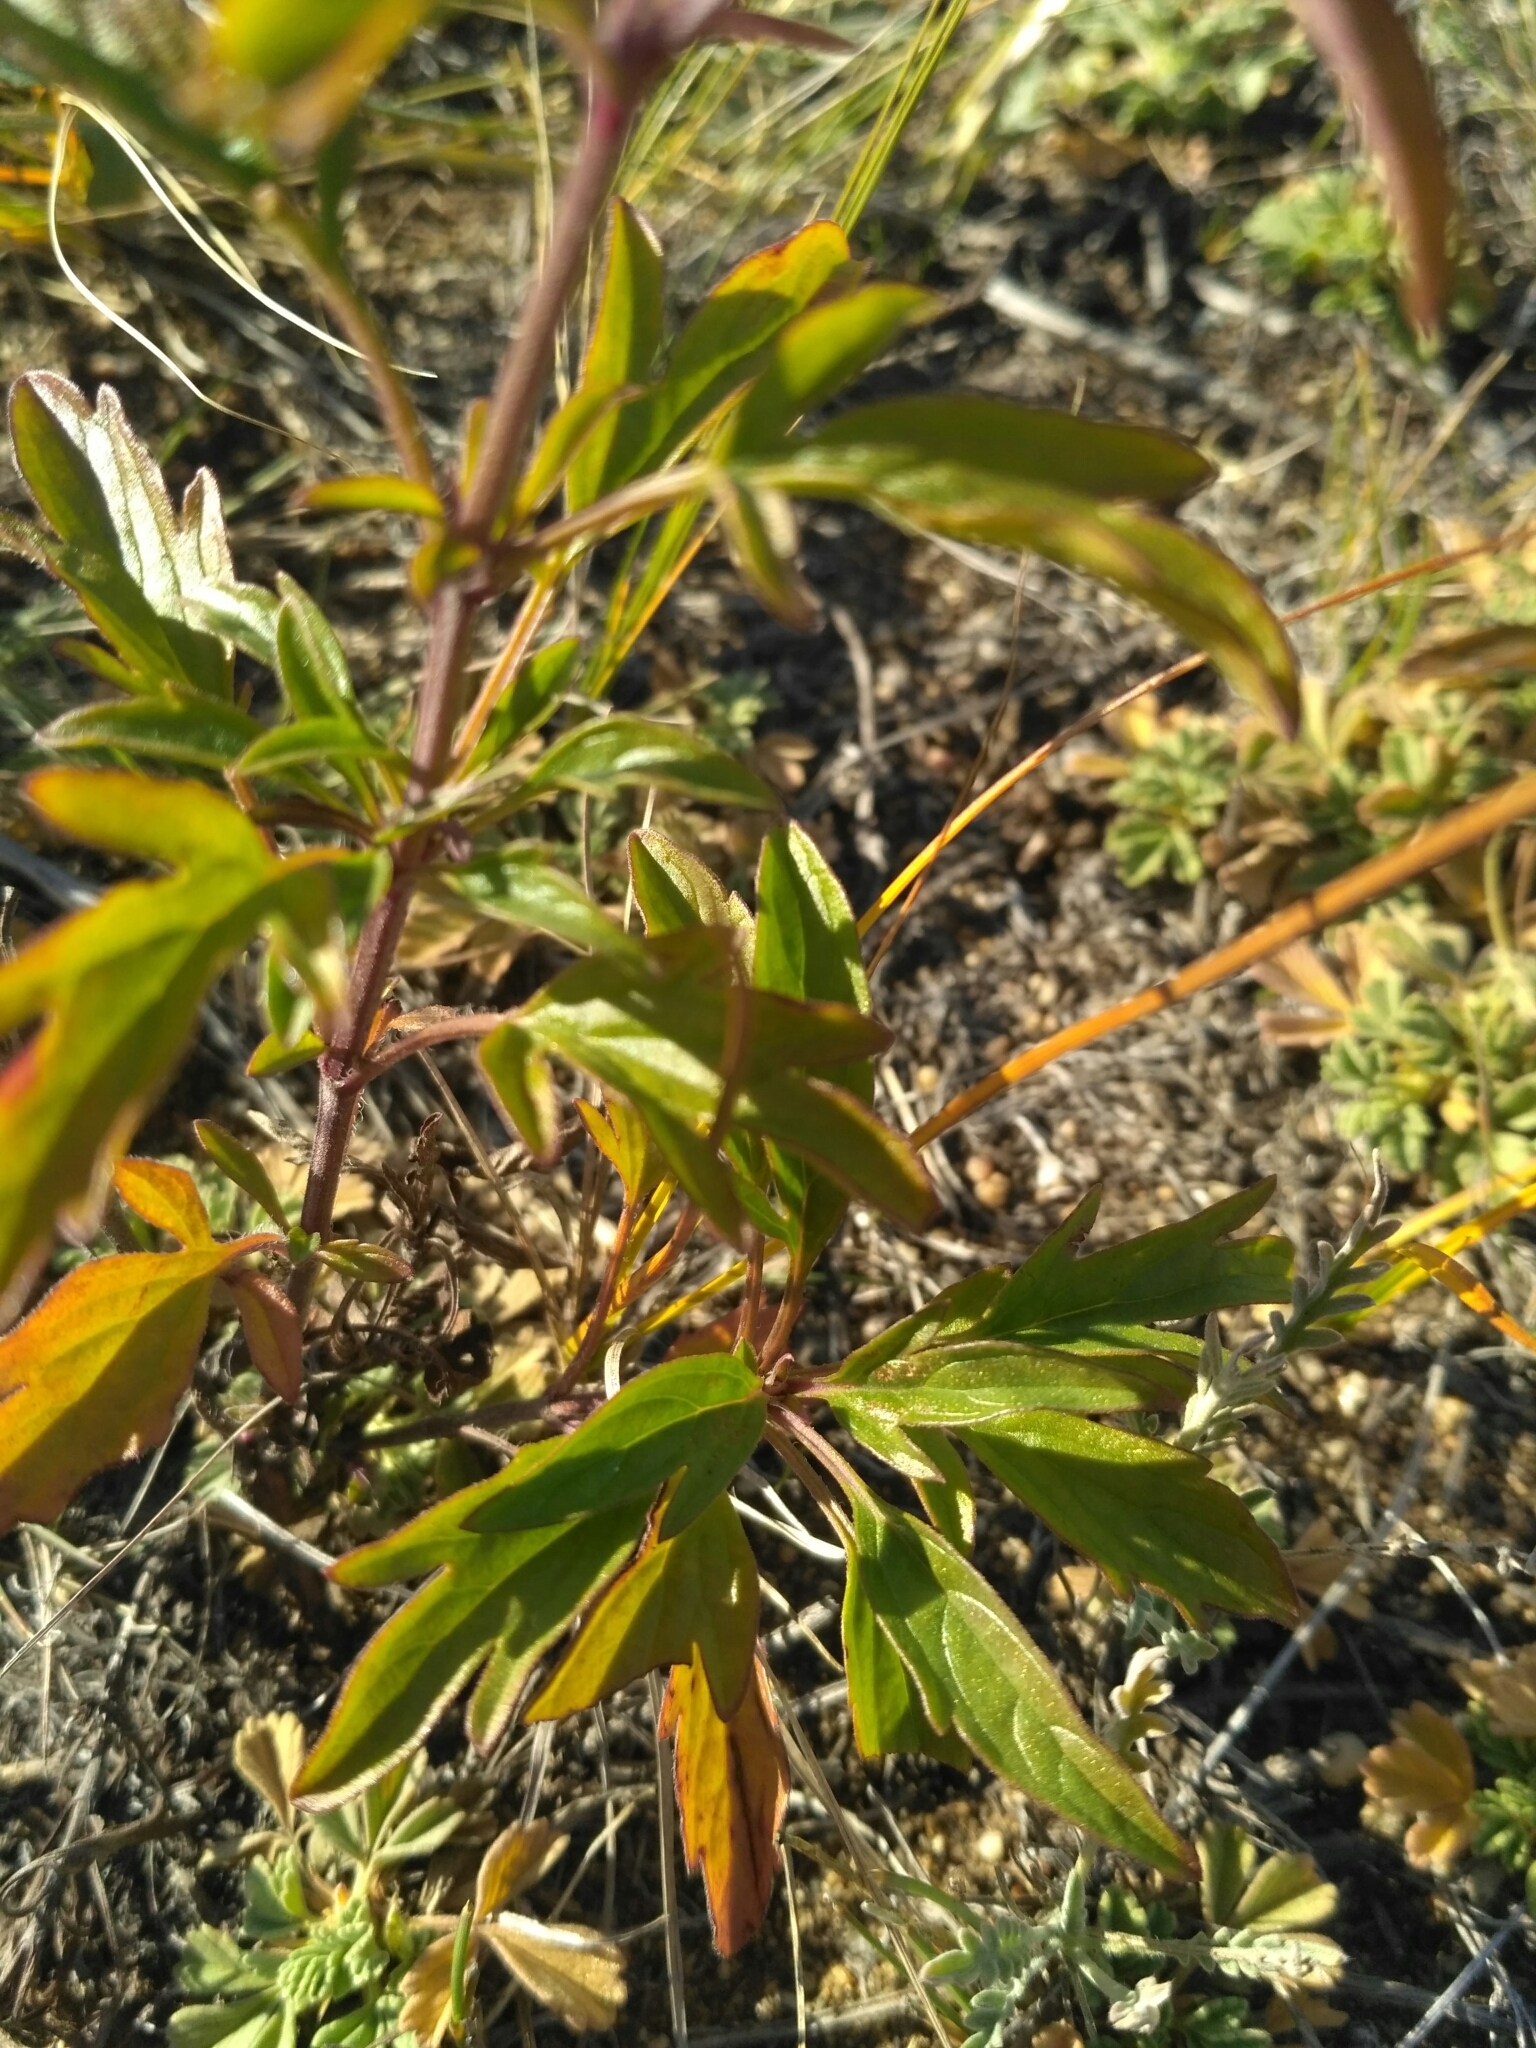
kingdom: Plantae
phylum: Tracheophyta
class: Magnoliopsida
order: Lamiales
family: Lamiaceae
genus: Nepeta
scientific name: Nepeta multifida
